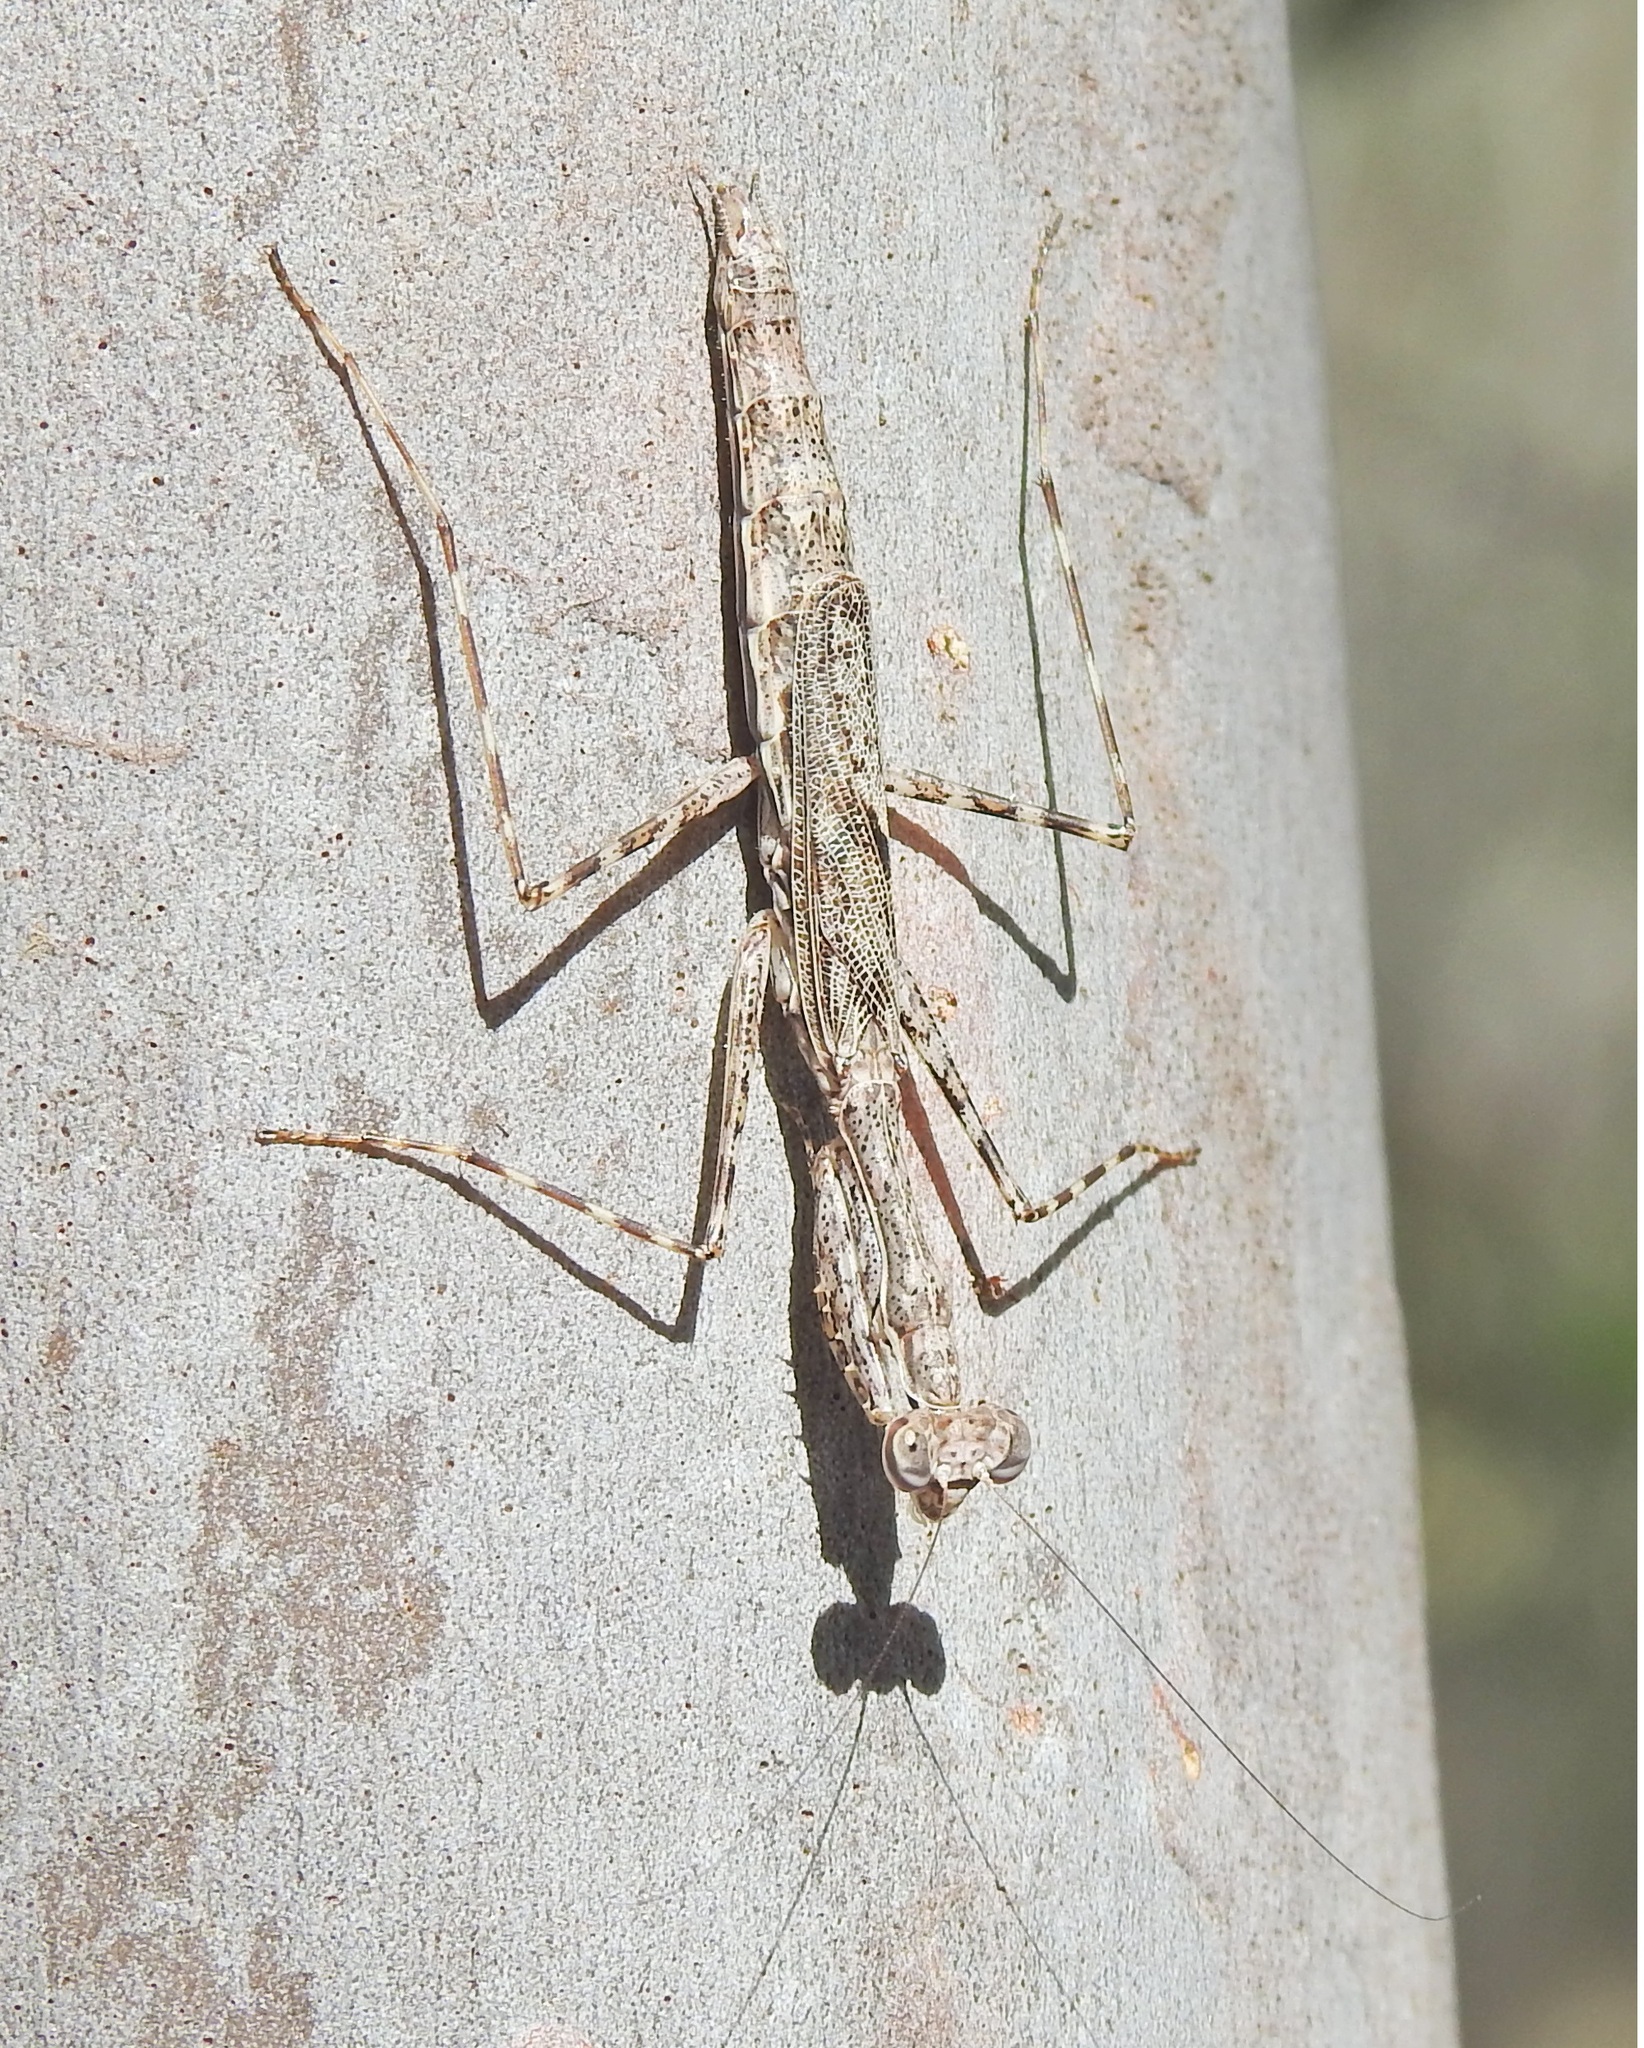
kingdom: Animalia
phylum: Arthropoda
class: Insecta
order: Mantodea
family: Nanomantidae
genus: Ciulfina
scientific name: Ciulfina baldersoni
